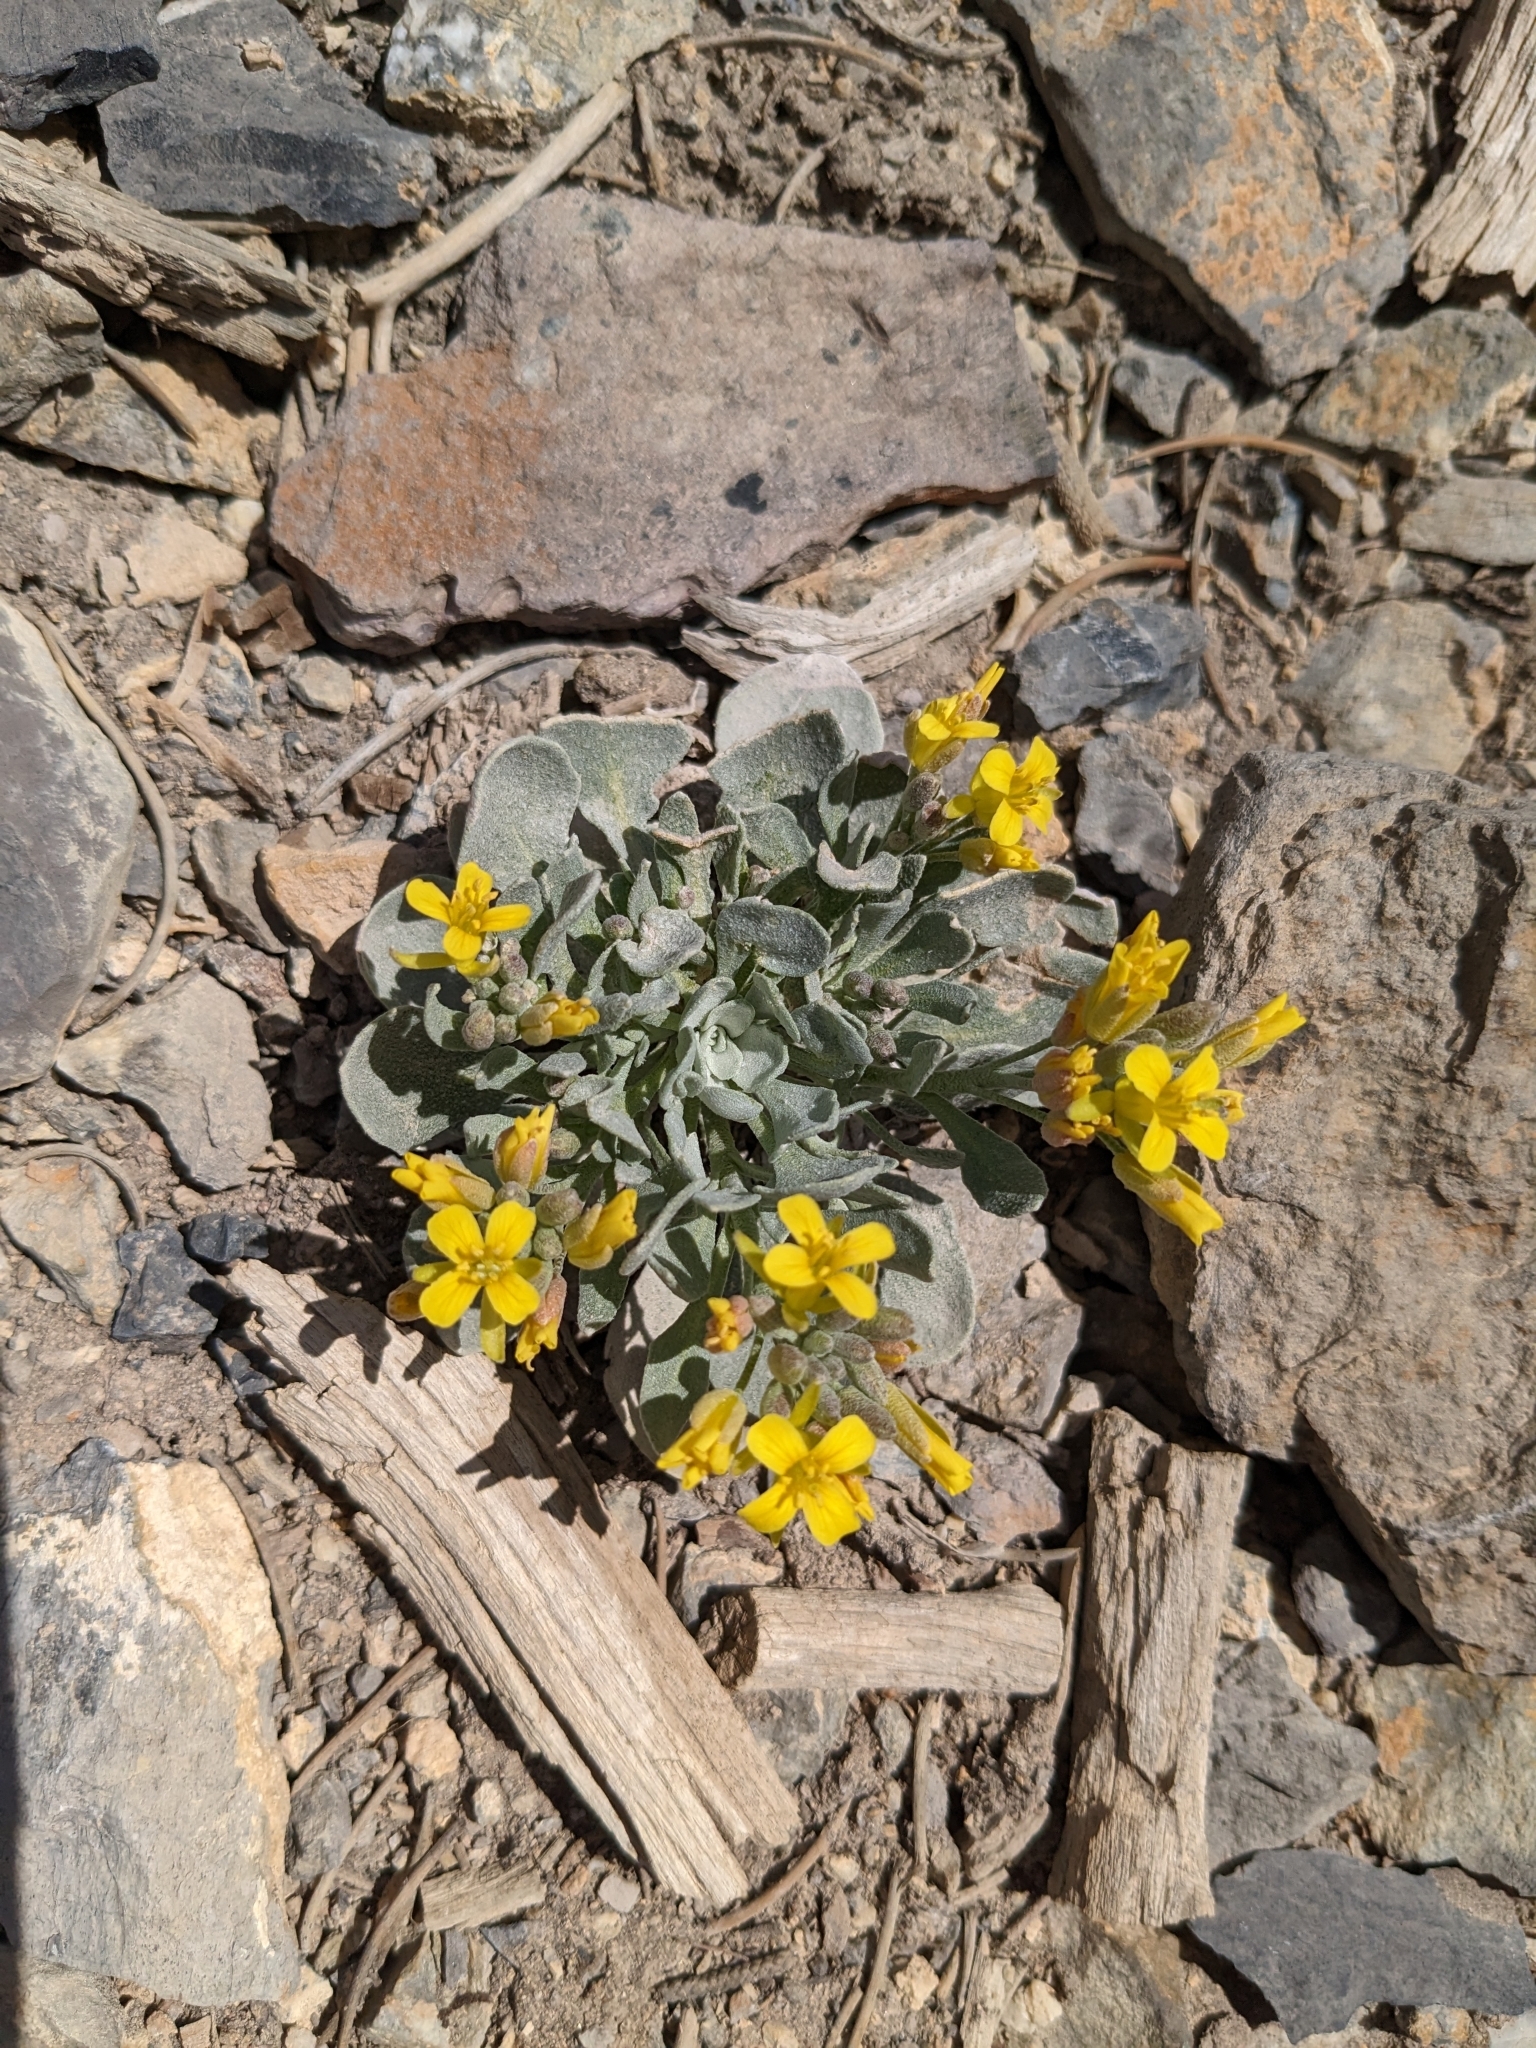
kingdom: Plantae
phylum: Tracheophyta
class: Magnoliopsida
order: Brassicales
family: Brassicaceae
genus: Physaria
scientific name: Physaria chambersii
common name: Chamber's twinpod
